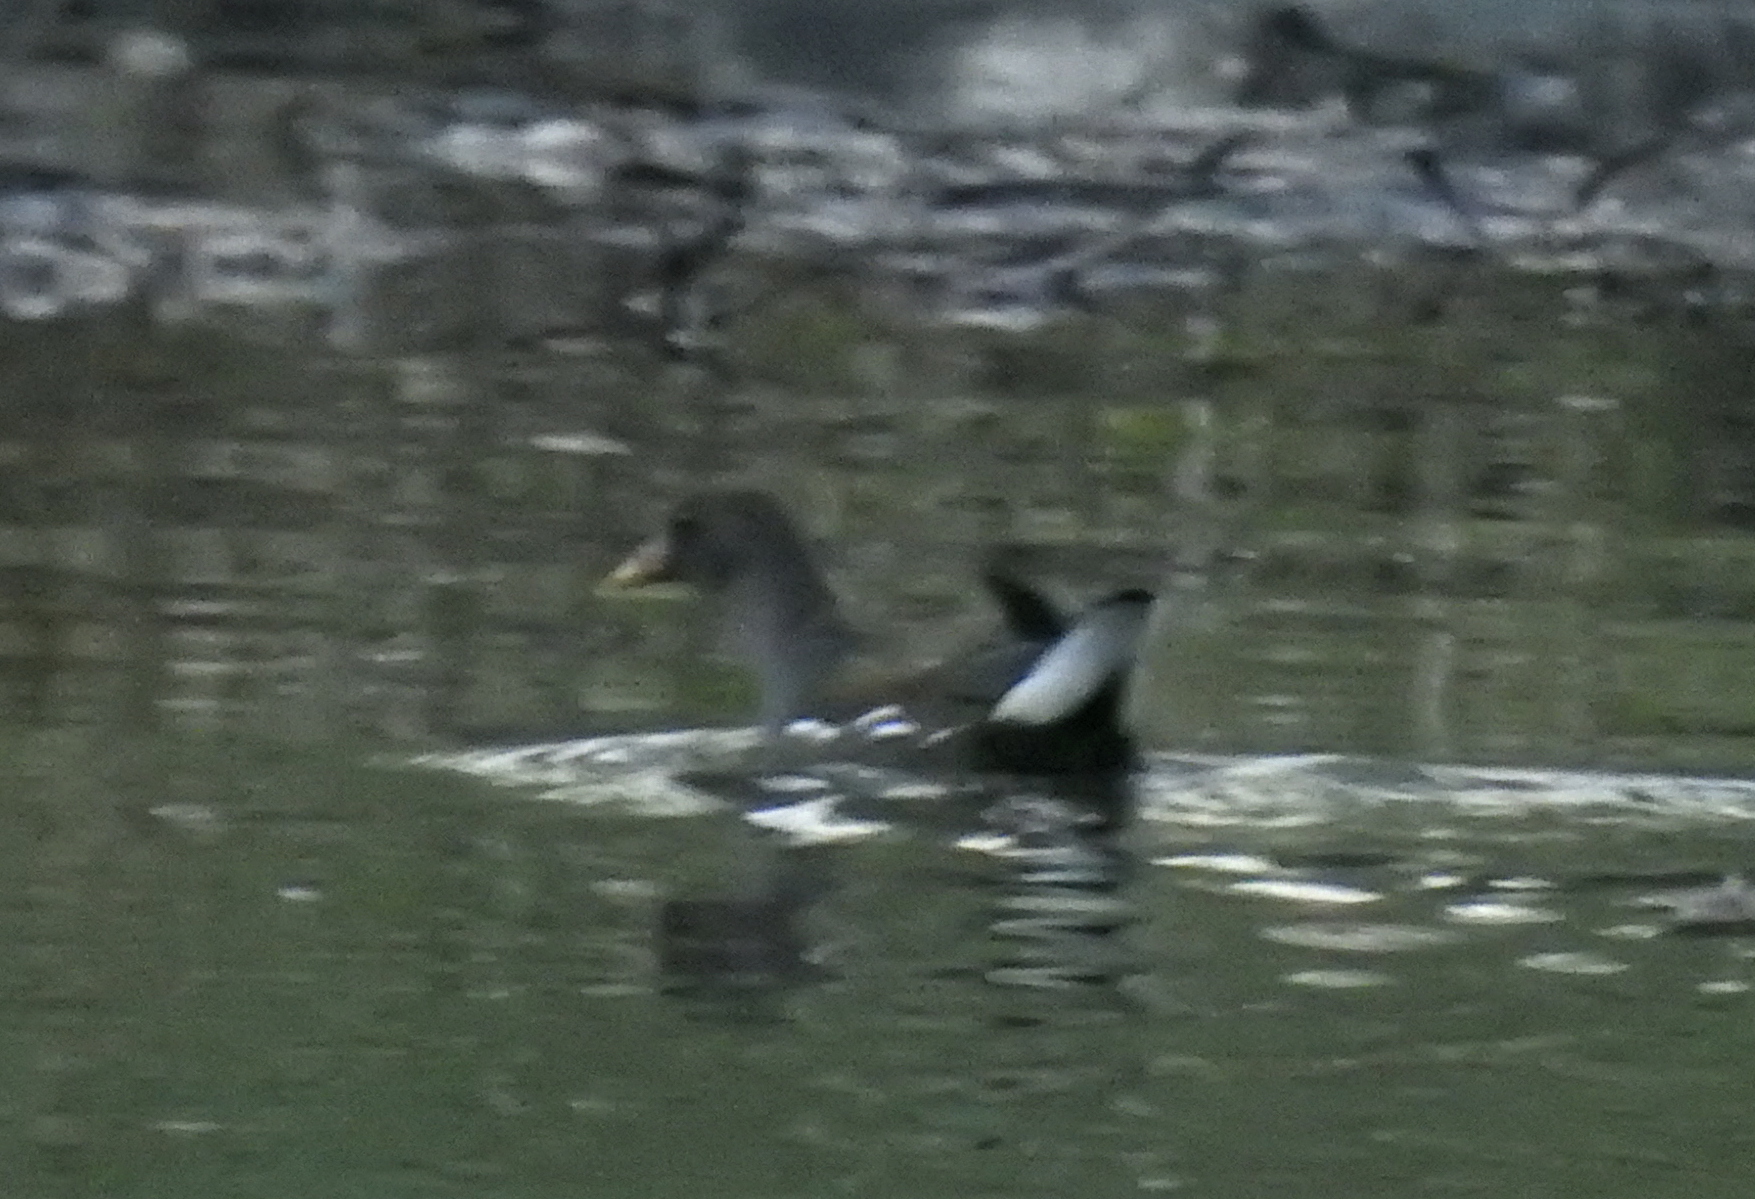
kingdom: Animalia
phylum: Chordata
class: Aves
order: Gruiformes
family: Rallidae
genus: Gallinula
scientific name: Gallinula chloropus
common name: Common moorhen
